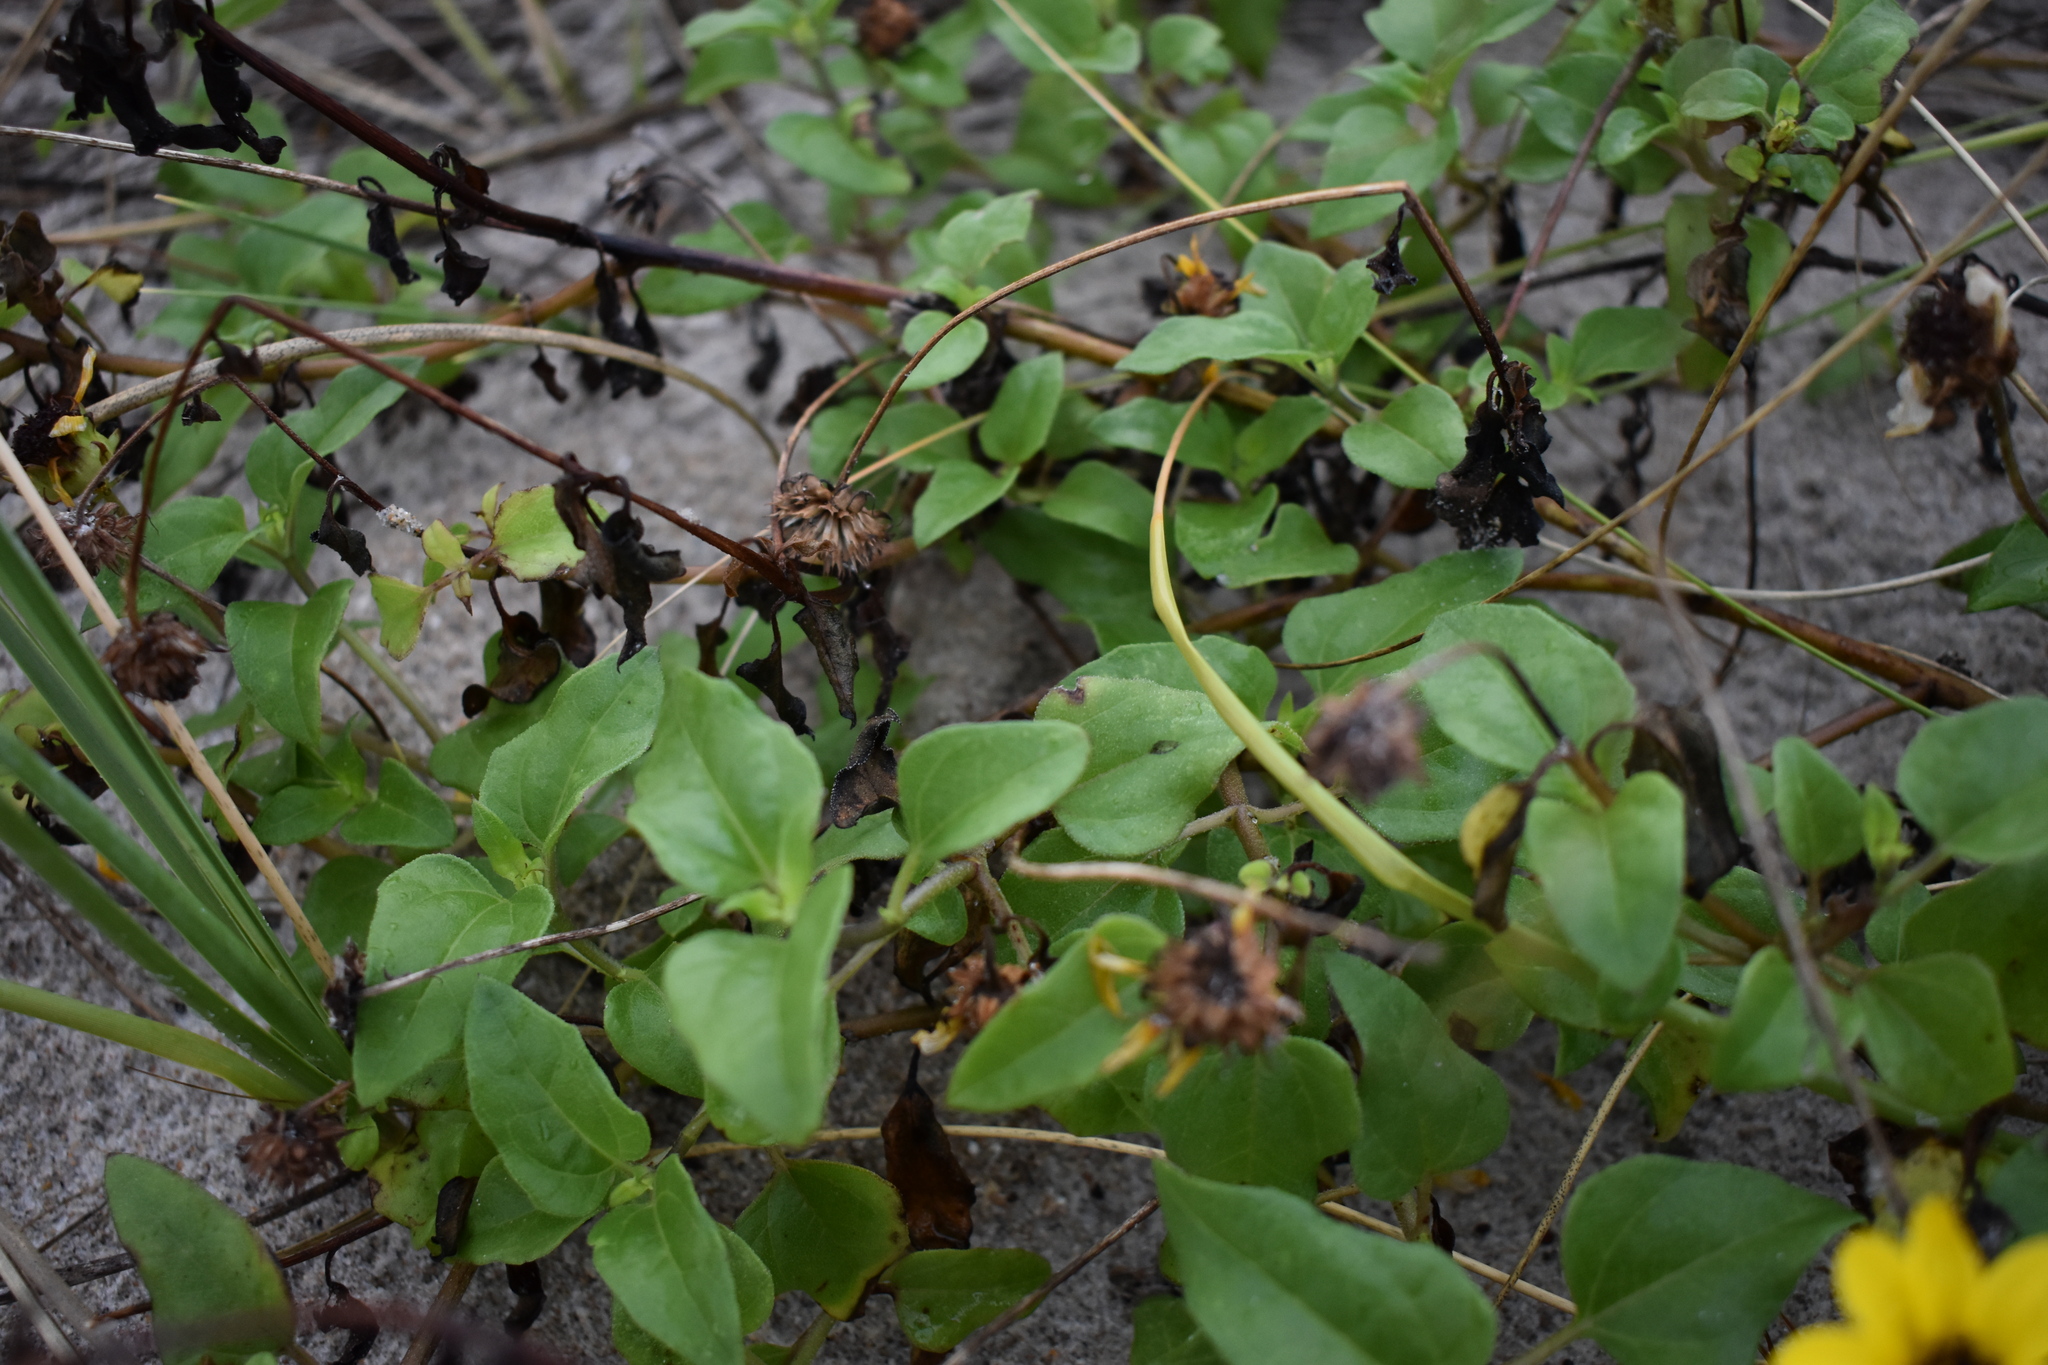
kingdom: Plantae
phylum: Tracheophyta
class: Magnoliopsida
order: Asterales
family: Asteraceae
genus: Helianthus
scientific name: Helianthus debilis
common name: Weak sunflower
